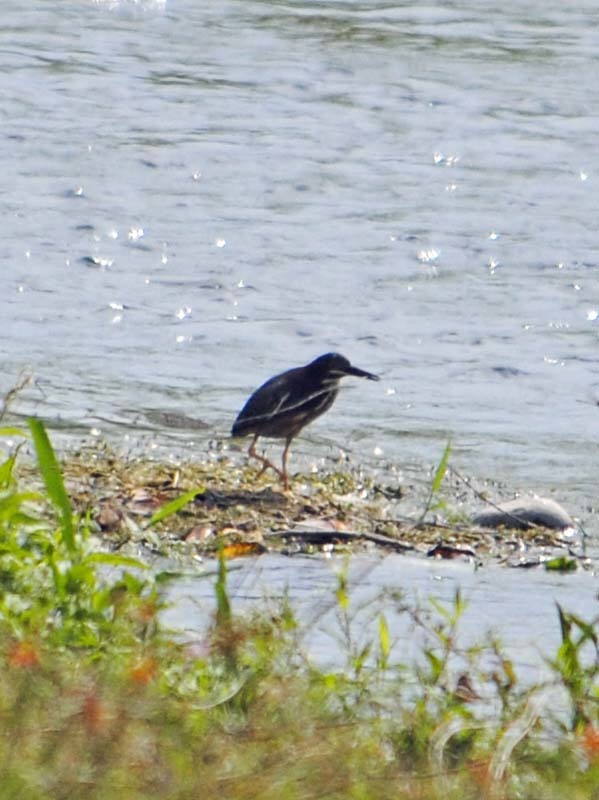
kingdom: Animalia
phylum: Chordata
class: Aves
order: Pelecaniformes
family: Ardeidae
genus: Butorides
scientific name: Butorides virescens
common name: Green heron
